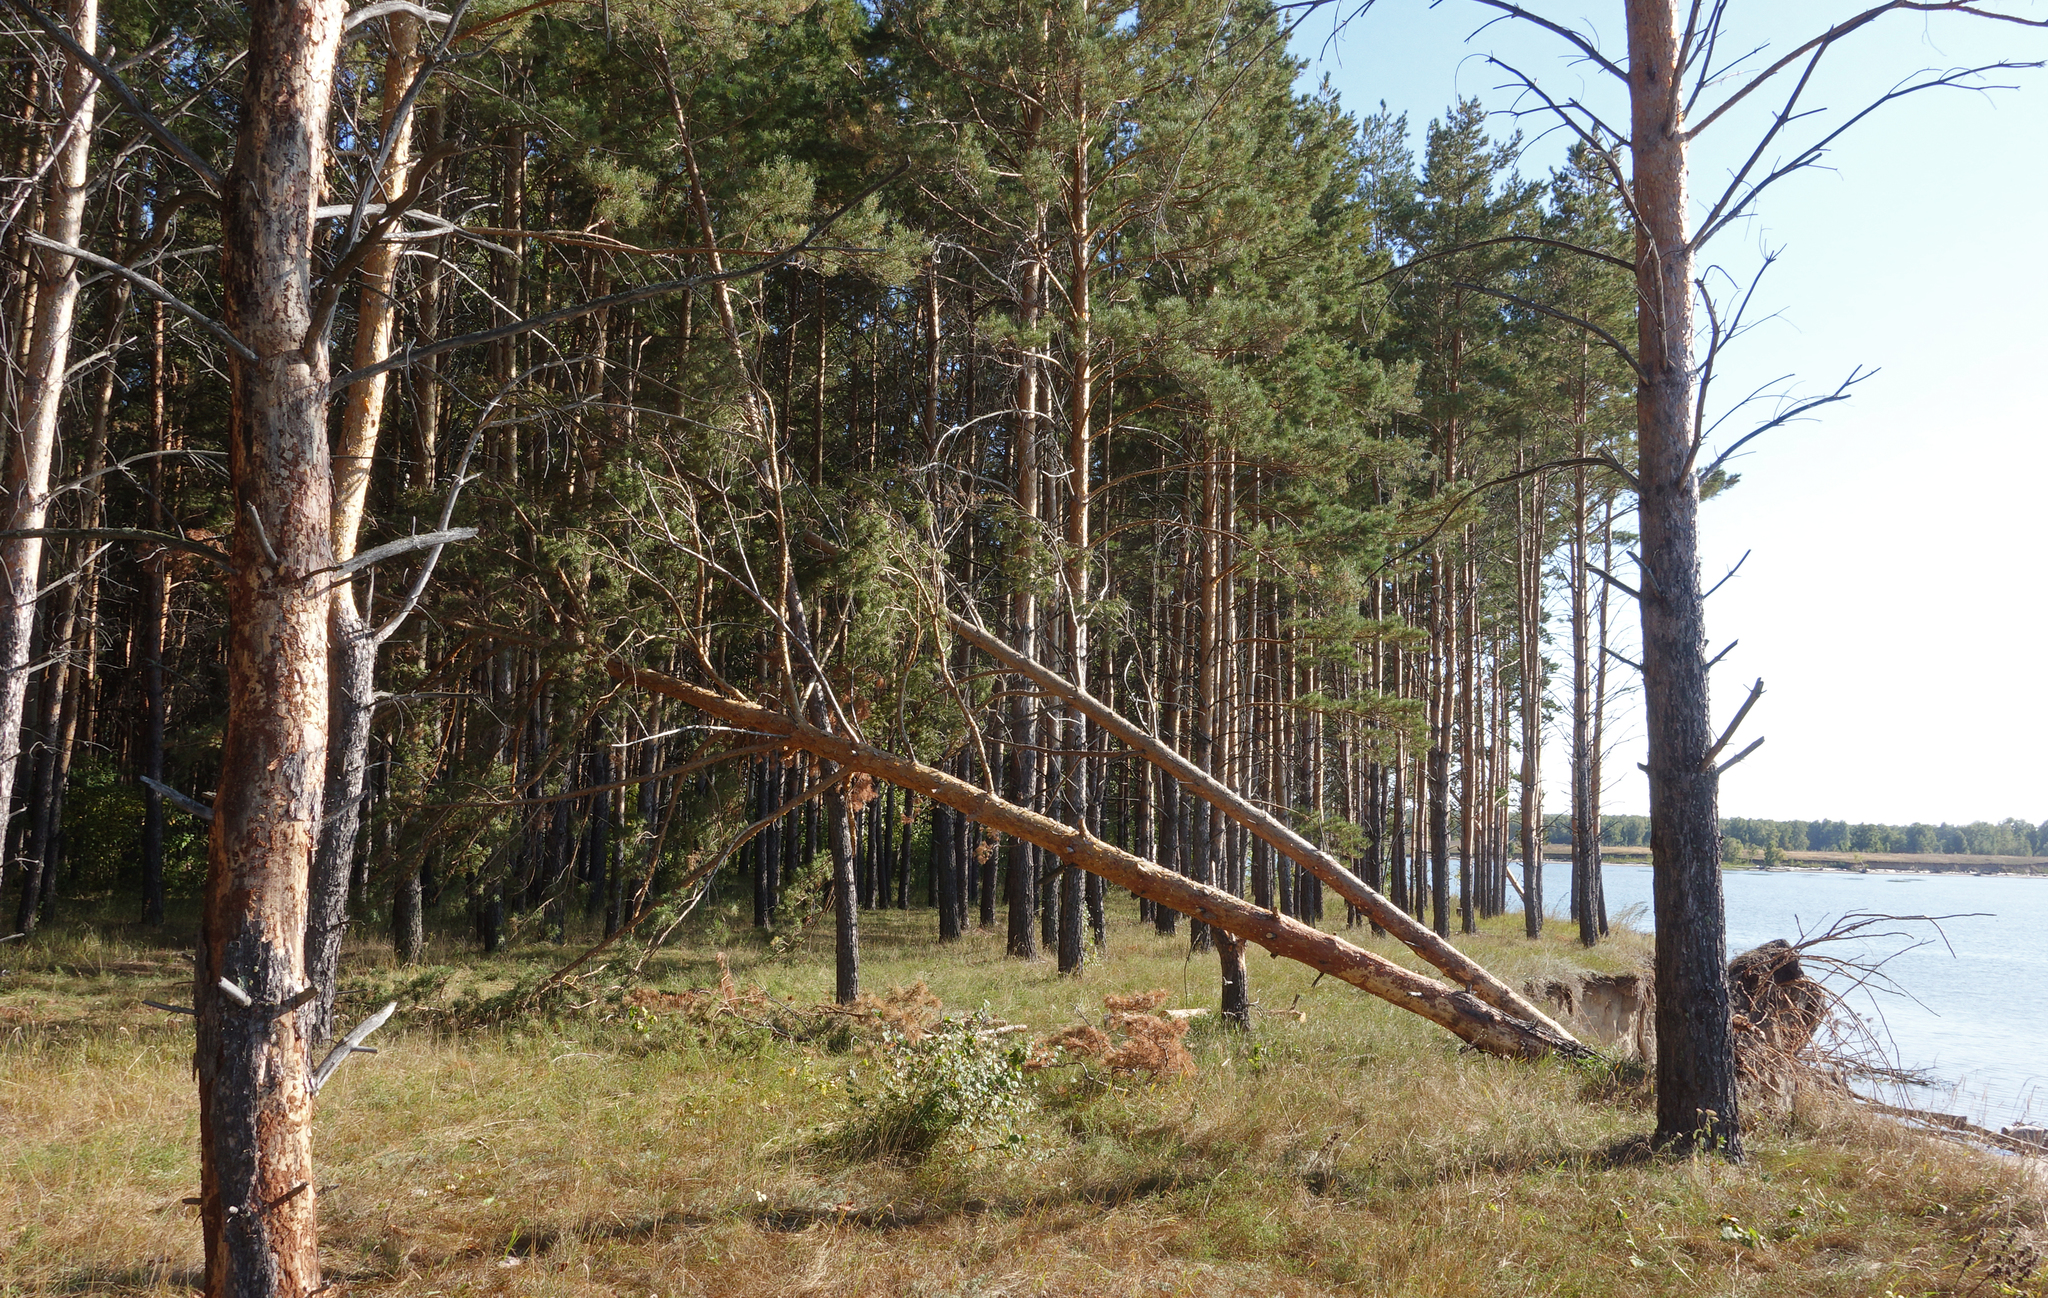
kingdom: Plantae
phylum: Tracheophyta
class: Pinopsida
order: Pinales
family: Pinaceae
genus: Pinus
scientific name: Pinus sylvestris
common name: Scots pine
